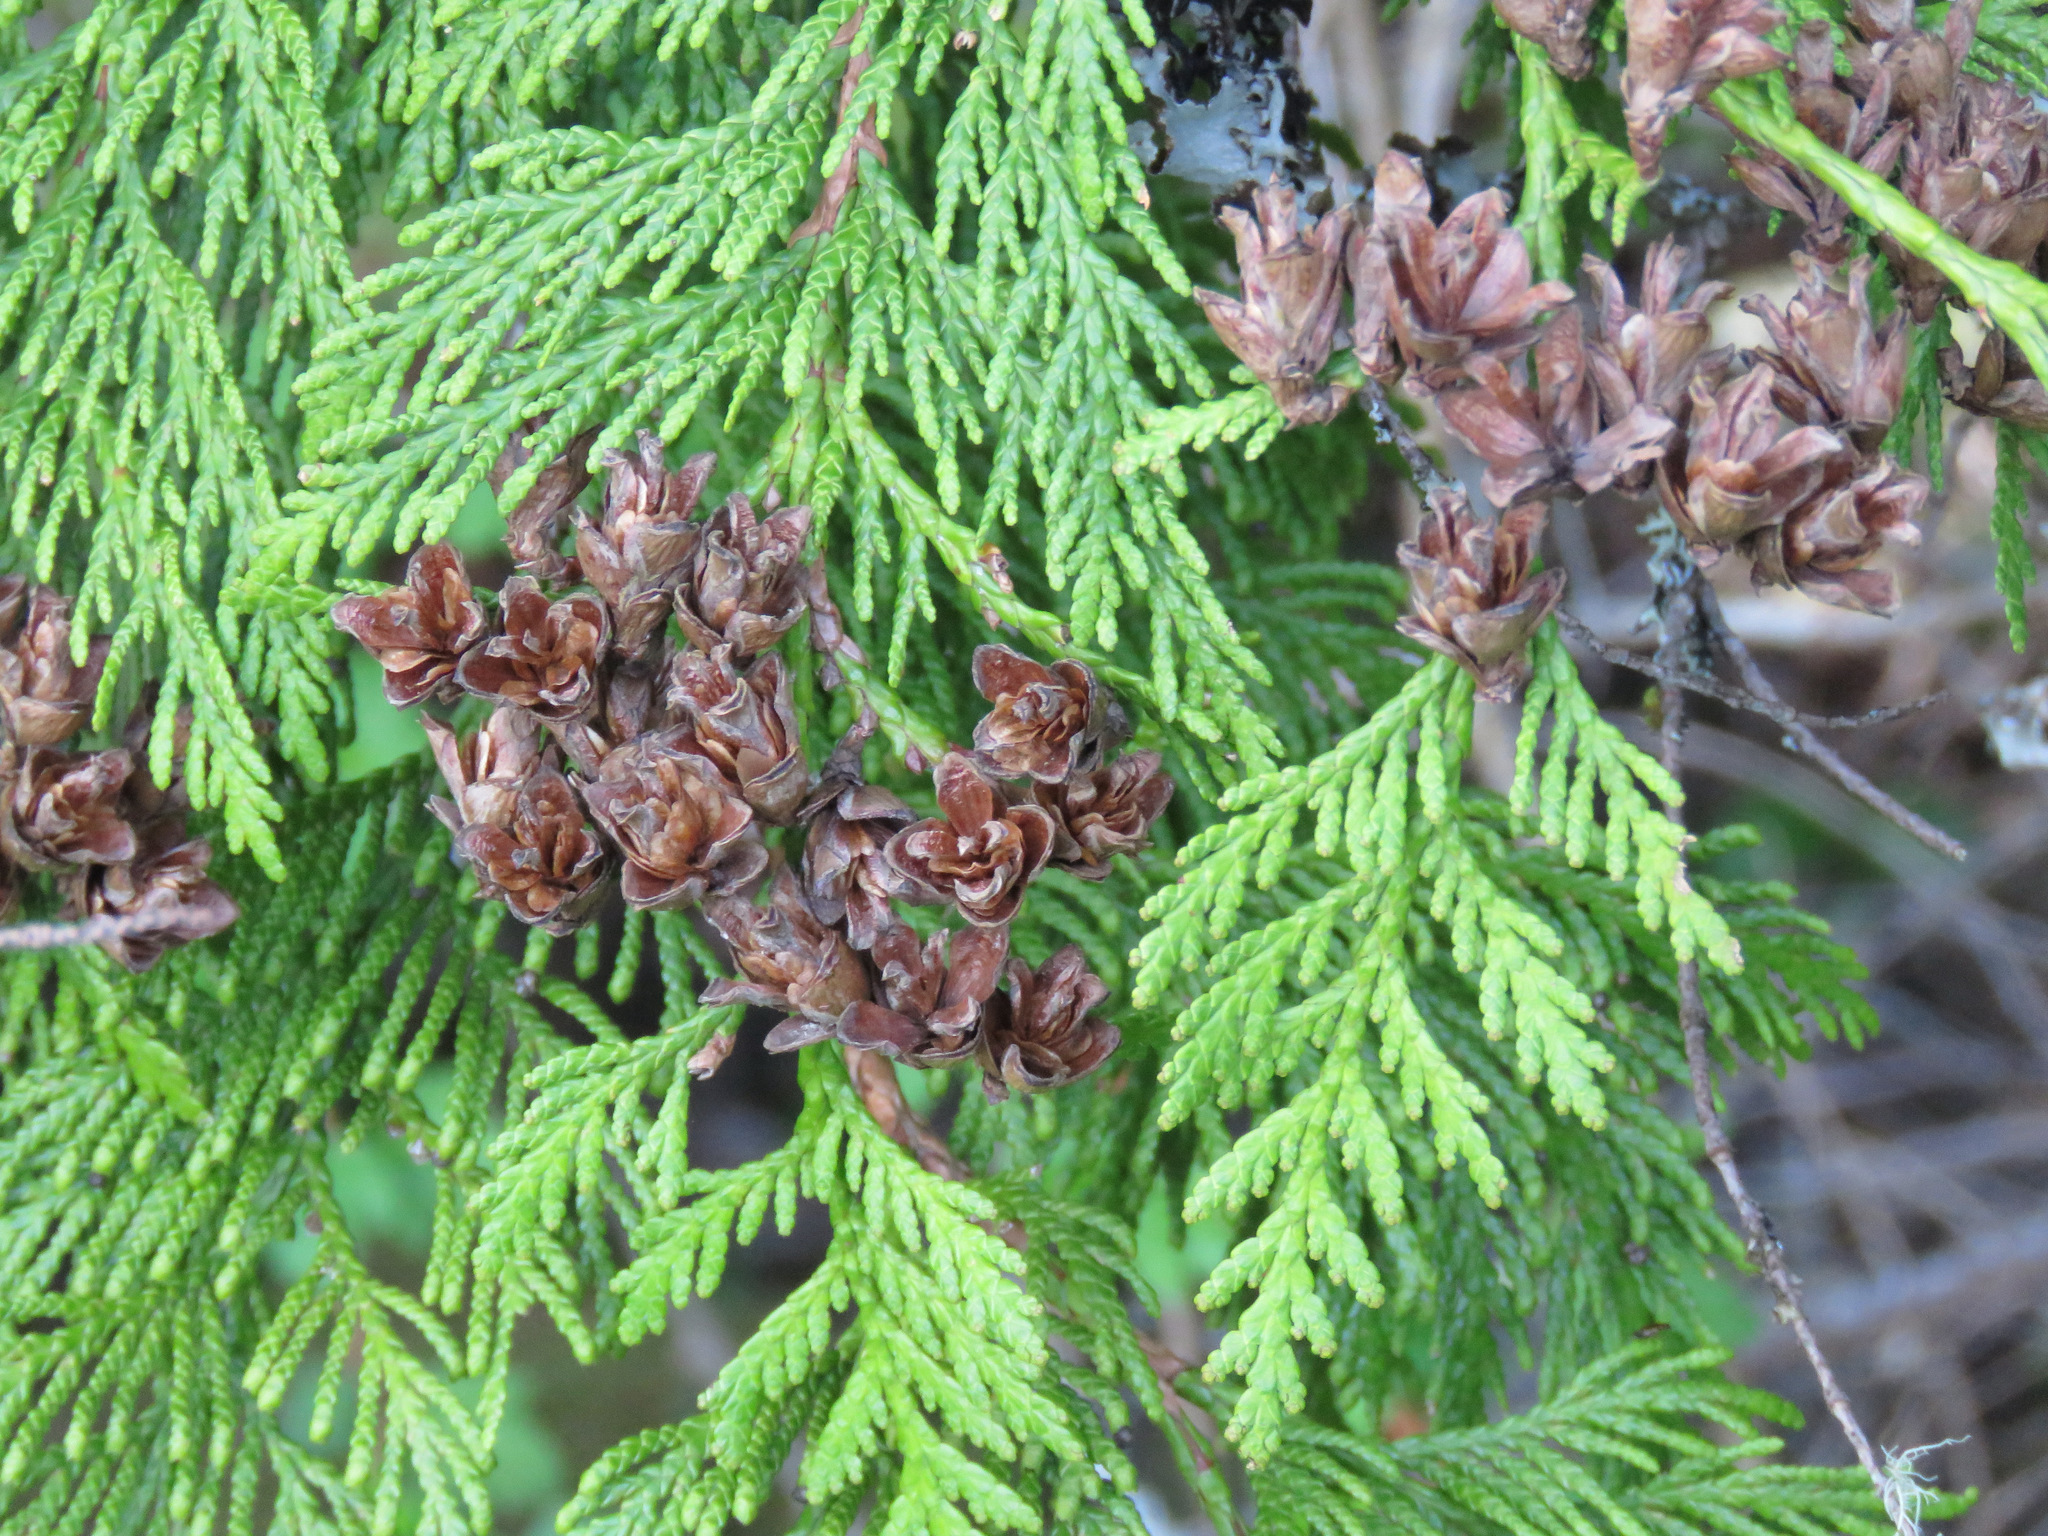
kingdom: Plantae
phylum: Tracheophyta
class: Pinopsida
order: Pinales
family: Cupressaceae
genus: Thuja
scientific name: Thuja plicata
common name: Western red-cedar
